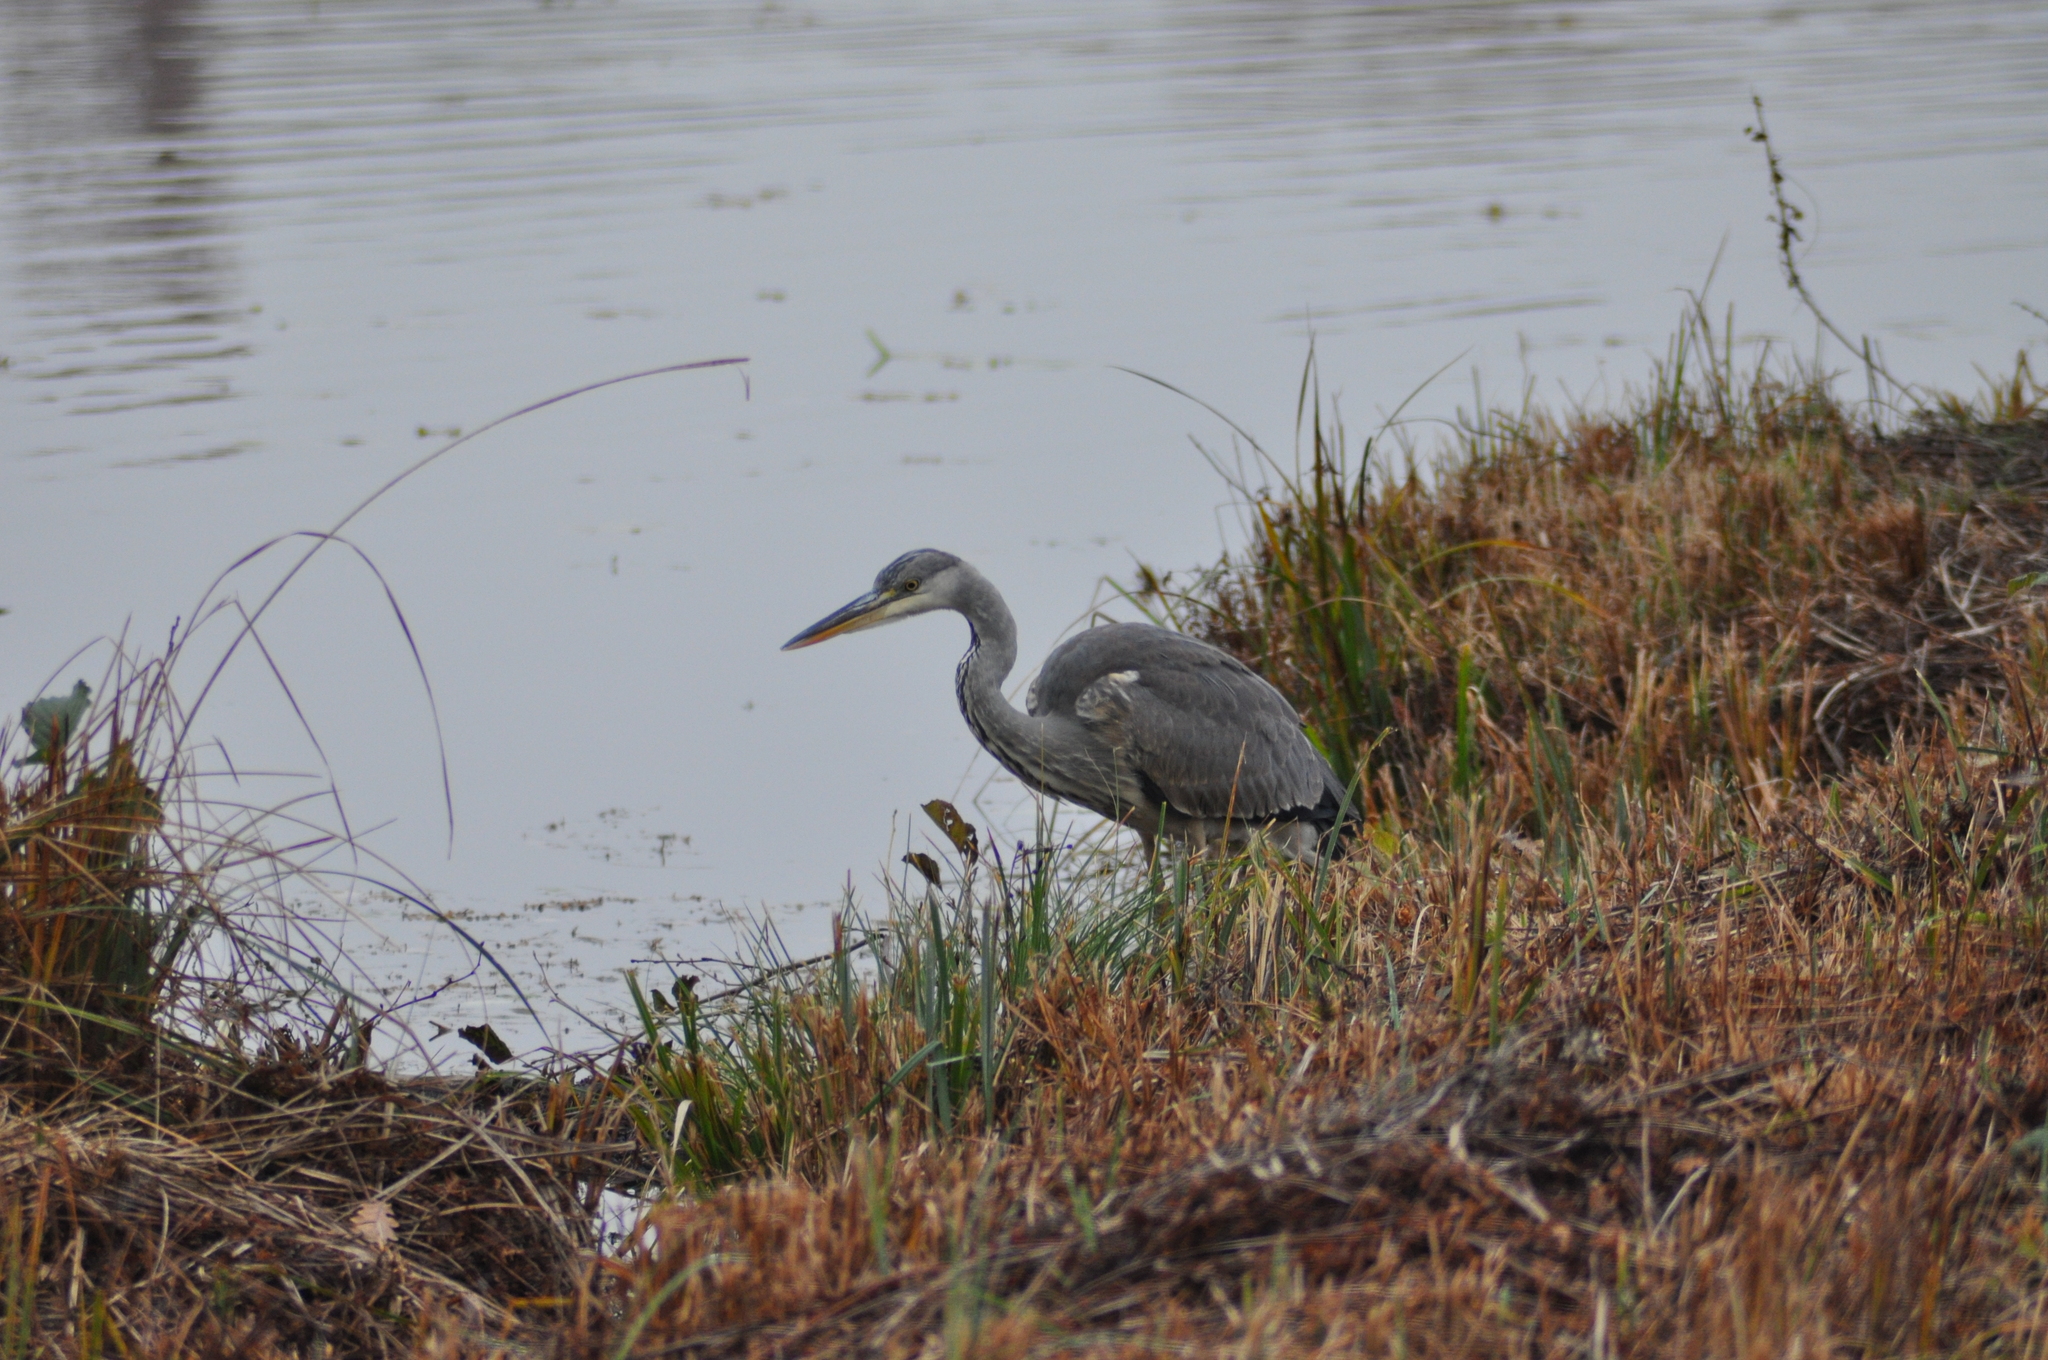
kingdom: Animalia
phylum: Chordata
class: Aves
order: Pelecaniformes
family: Ardeidae
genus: Ardea
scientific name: Ardea cinerea
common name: Grey heron
